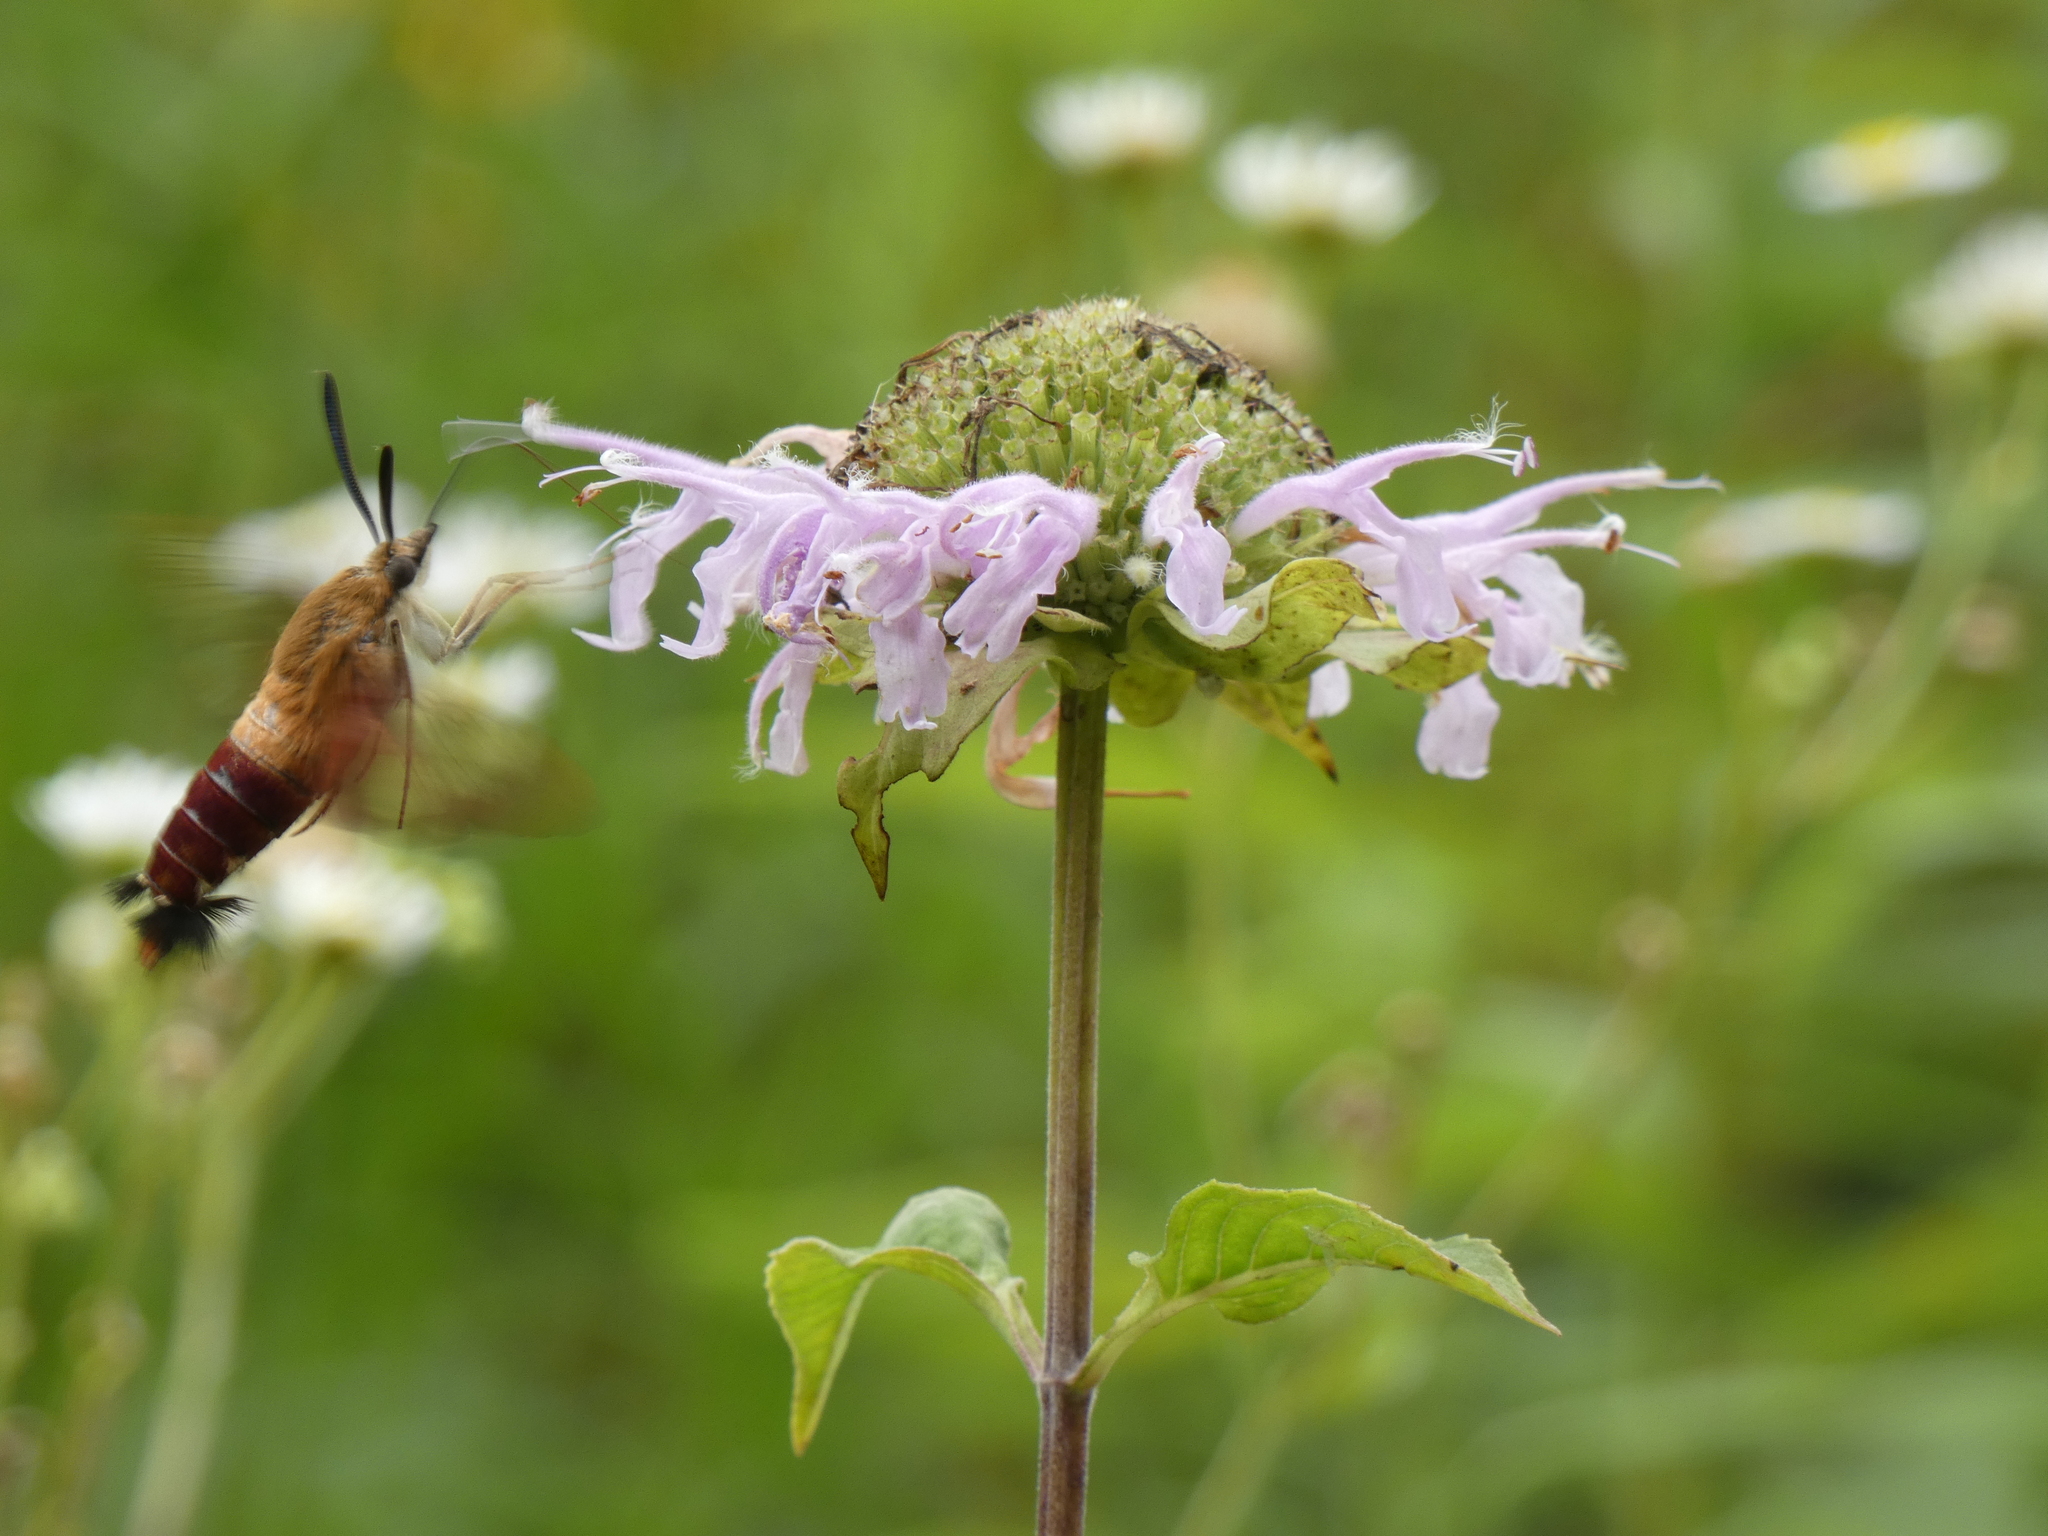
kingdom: Animalia
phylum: Arthropoda
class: Insecta
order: Lepidoptera
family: Sphingidae
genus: Hemaris
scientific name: Hemaris thysbe
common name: Common clear-wing
